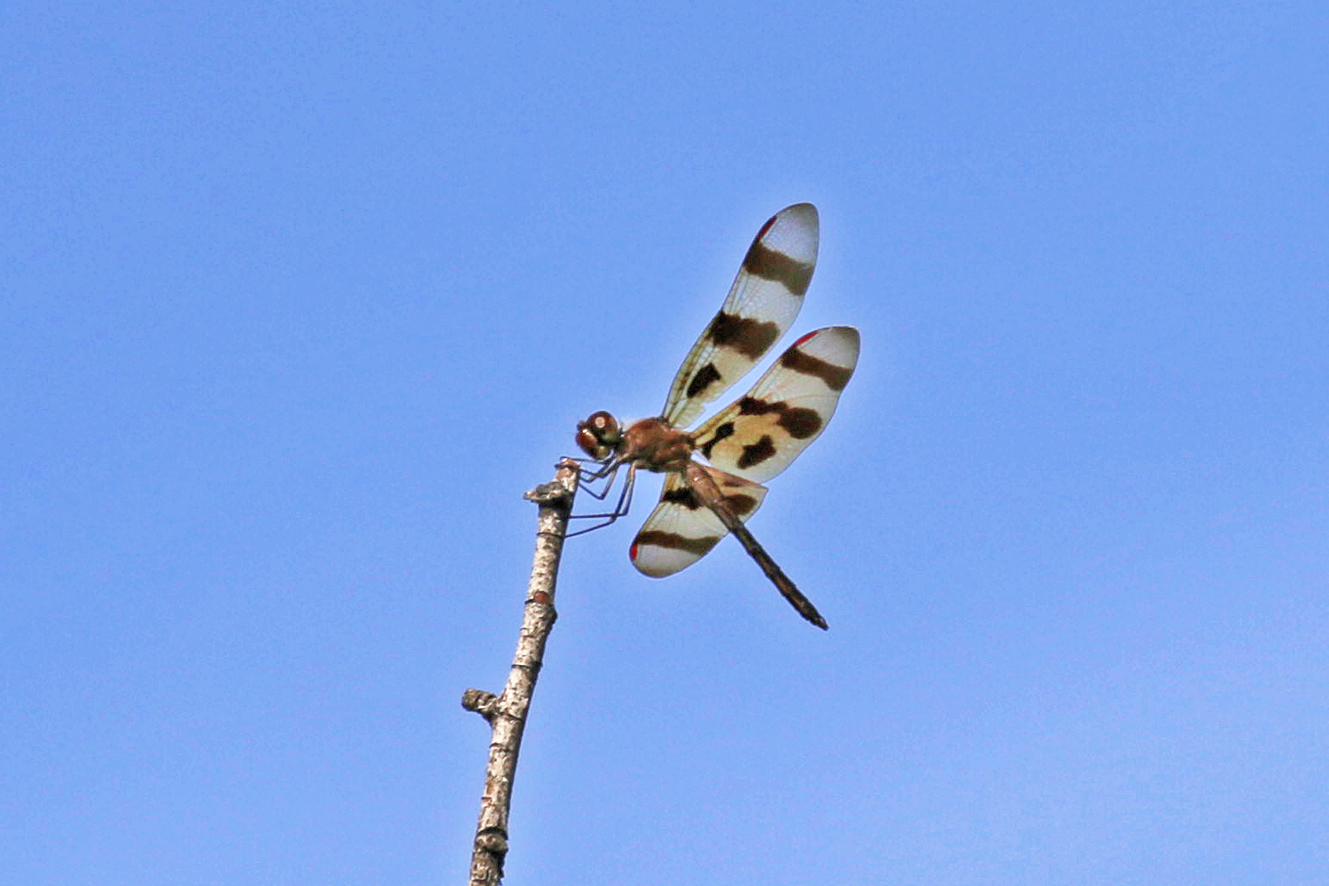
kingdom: Animalia
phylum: Arthropoda
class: Insecta
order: Odonata
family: Libellulidae
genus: Celithemis
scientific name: Celithemis eponina
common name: Halloween pennant
